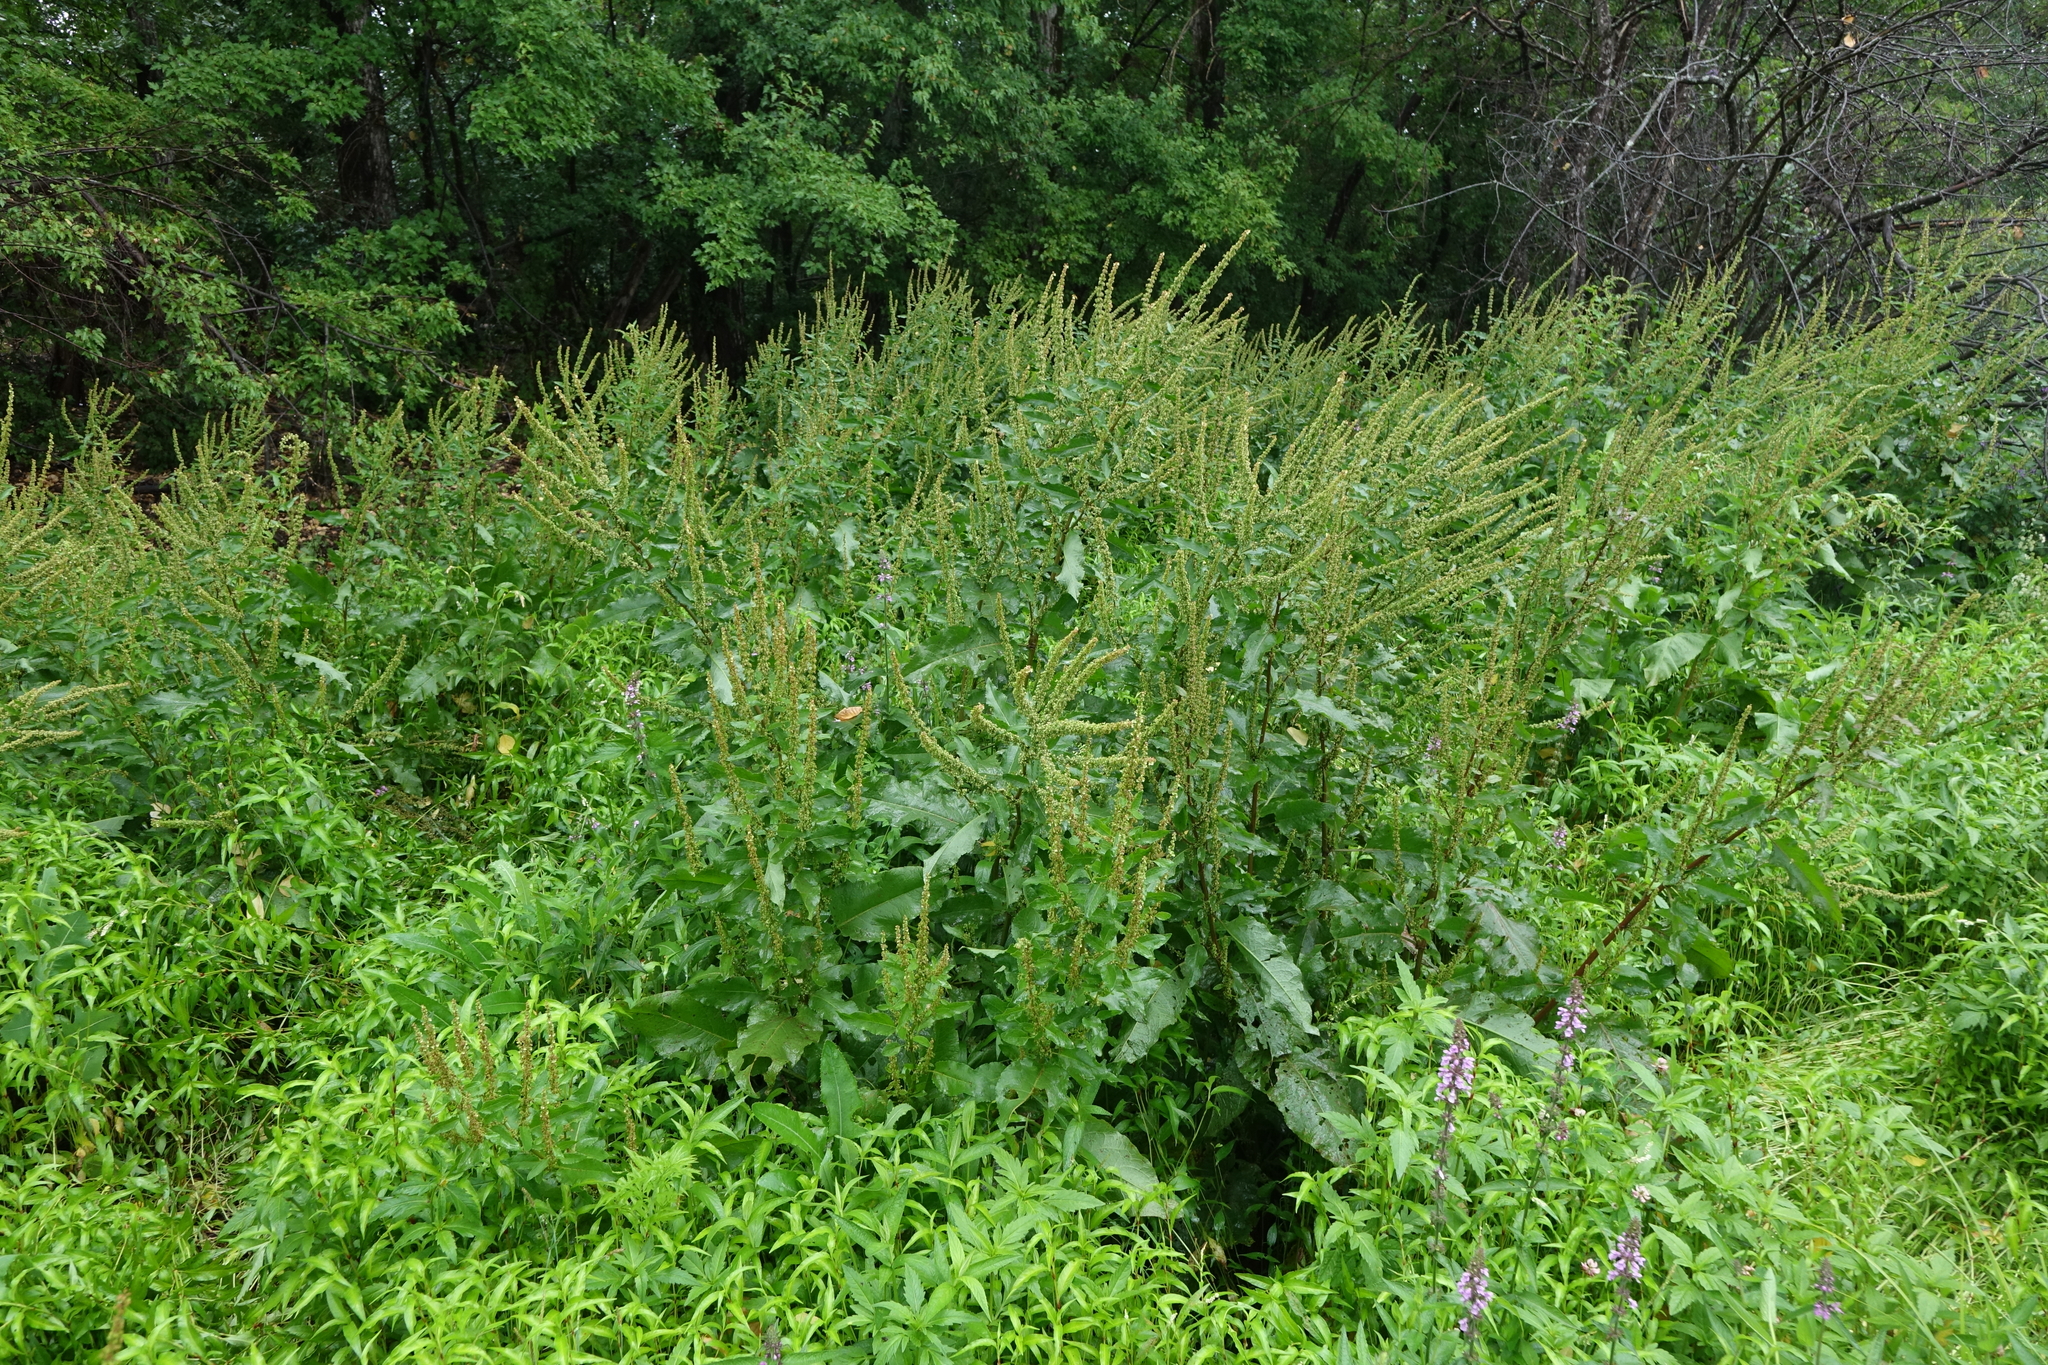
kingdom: Plantae
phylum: Tracheophyta
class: Magnoliopsida
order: Caryophyllales
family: Polygonaceae
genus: Rumex
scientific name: Rumex obtusifolius
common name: Bitter dock
